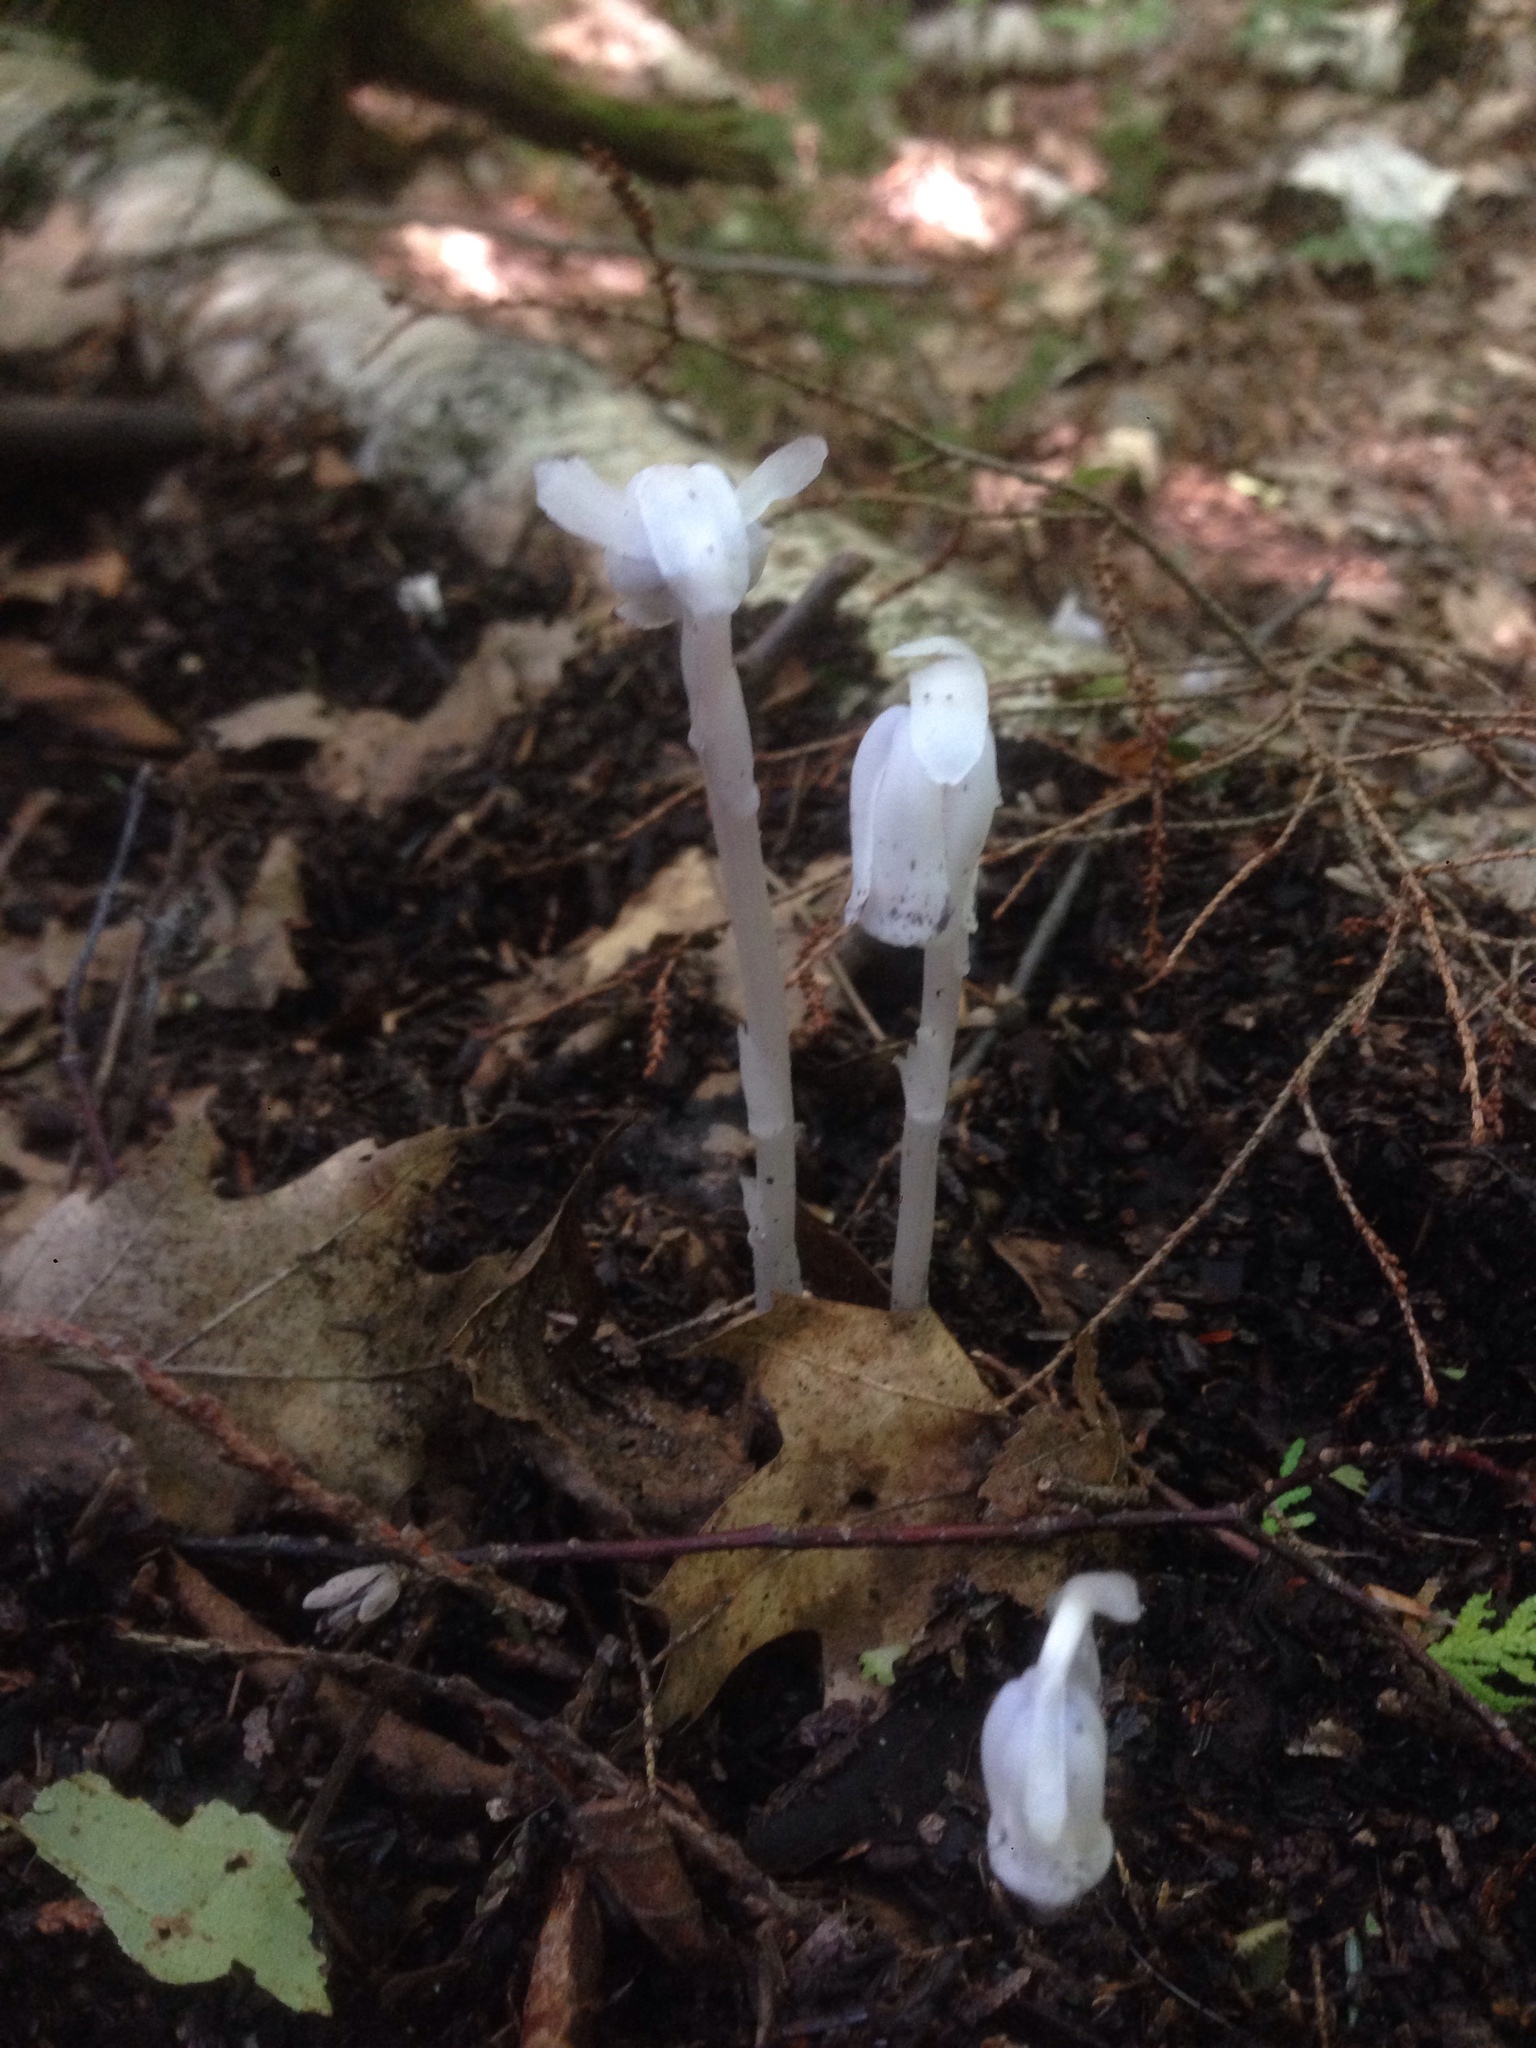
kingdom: Plantae
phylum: Tracheophyta
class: Magnoliopsida
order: Ericales
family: Ericaceae
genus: Monotropa
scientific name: Monotropa uniflora
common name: Convulsion root
